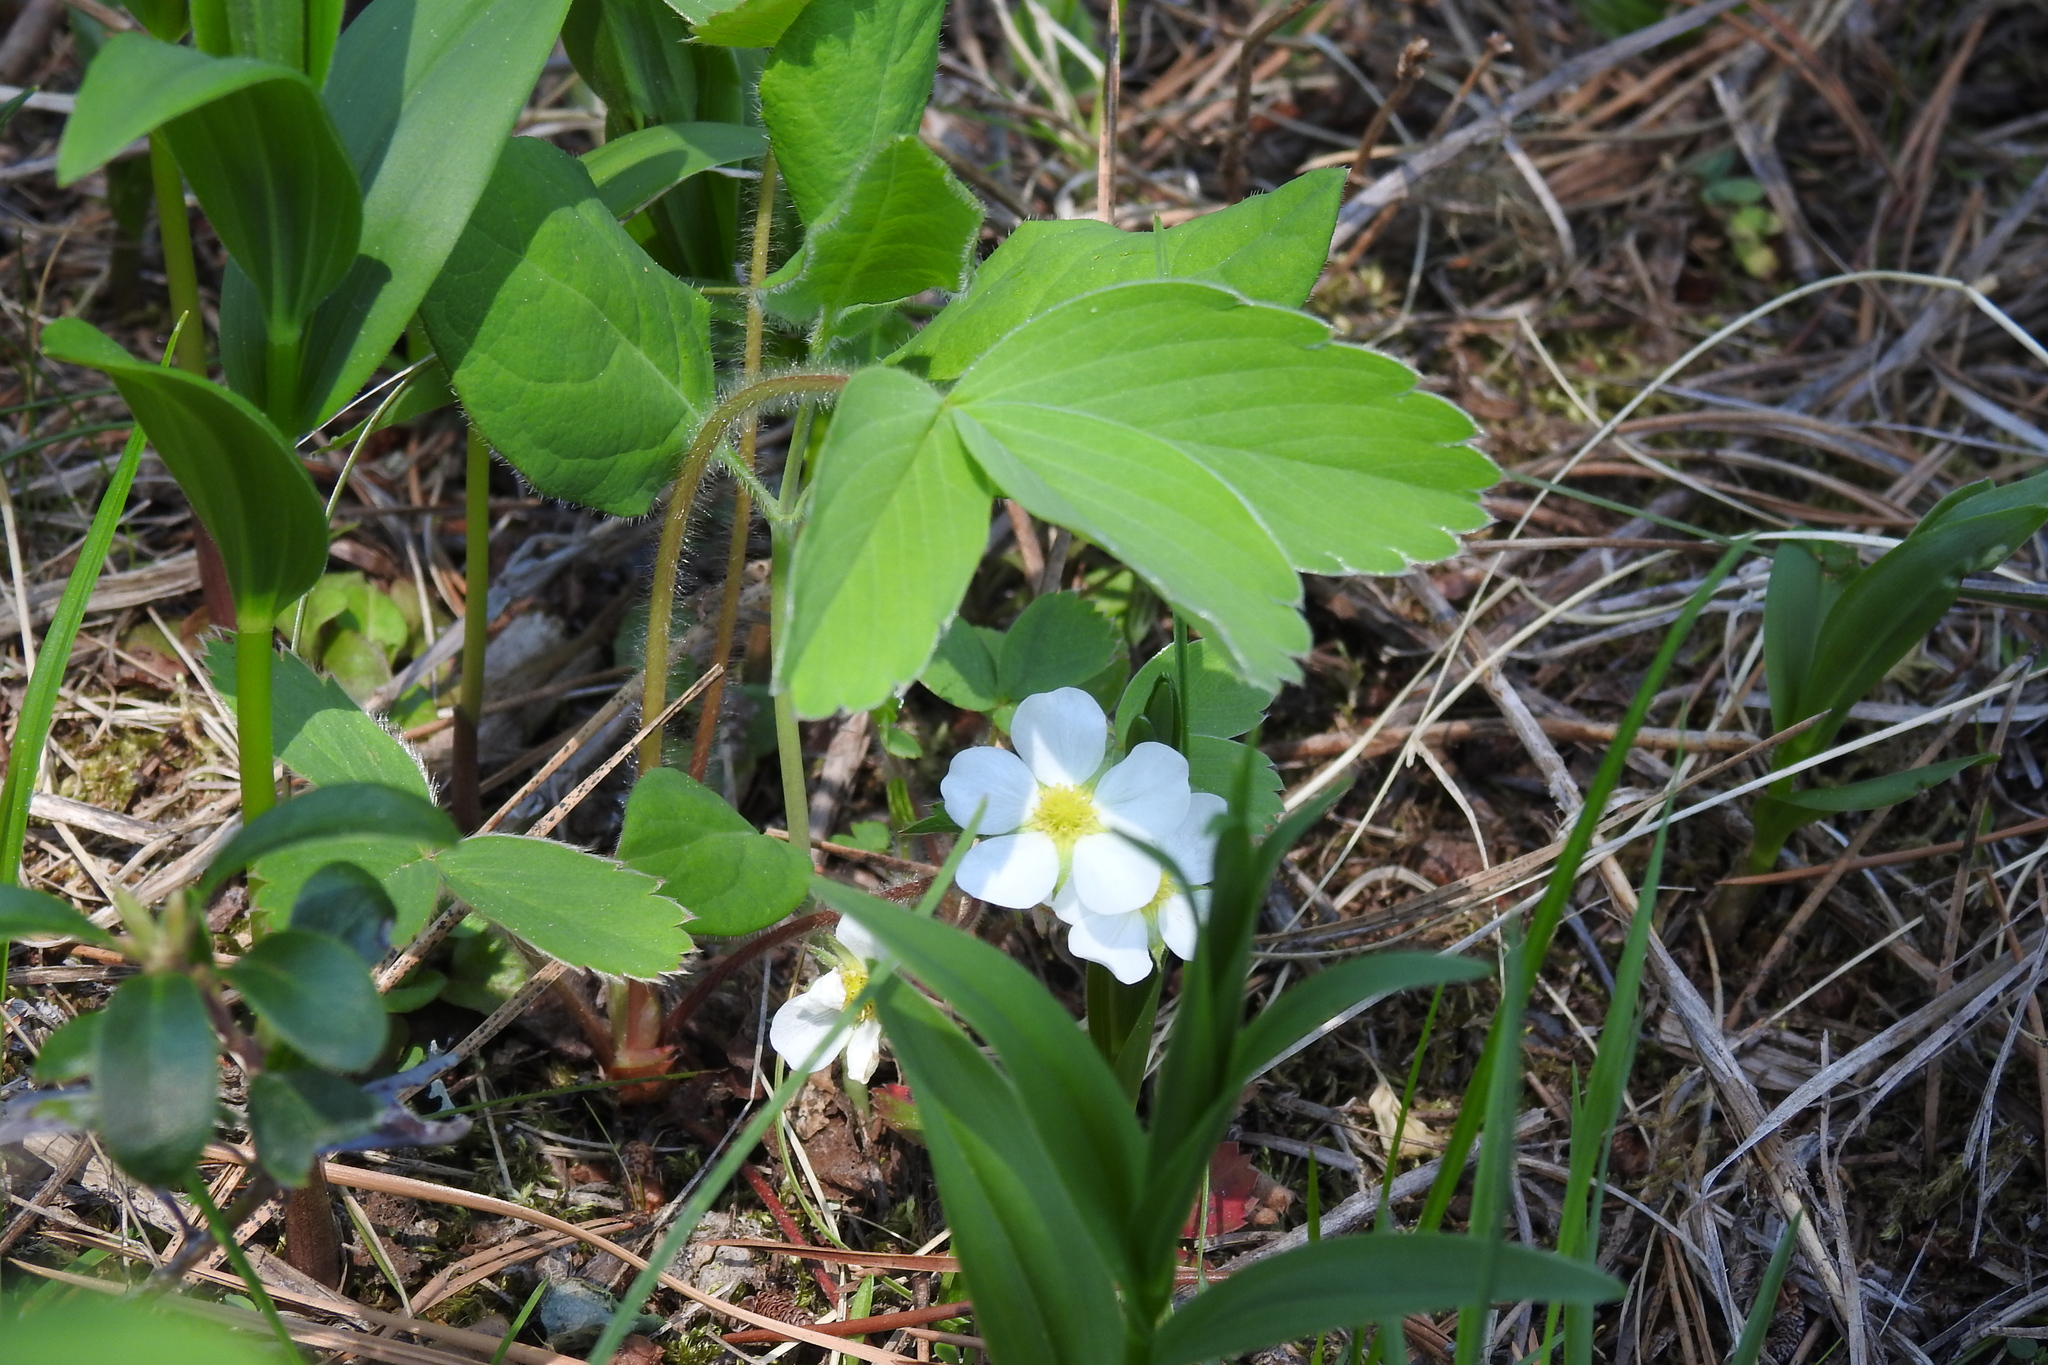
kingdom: Plantae
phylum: Tracheophyta
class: Magnoliopsida
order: Rosales
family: Rosaceae
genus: Fragaria
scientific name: Fragaria virginiana
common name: Thickleaved wild strawberry
